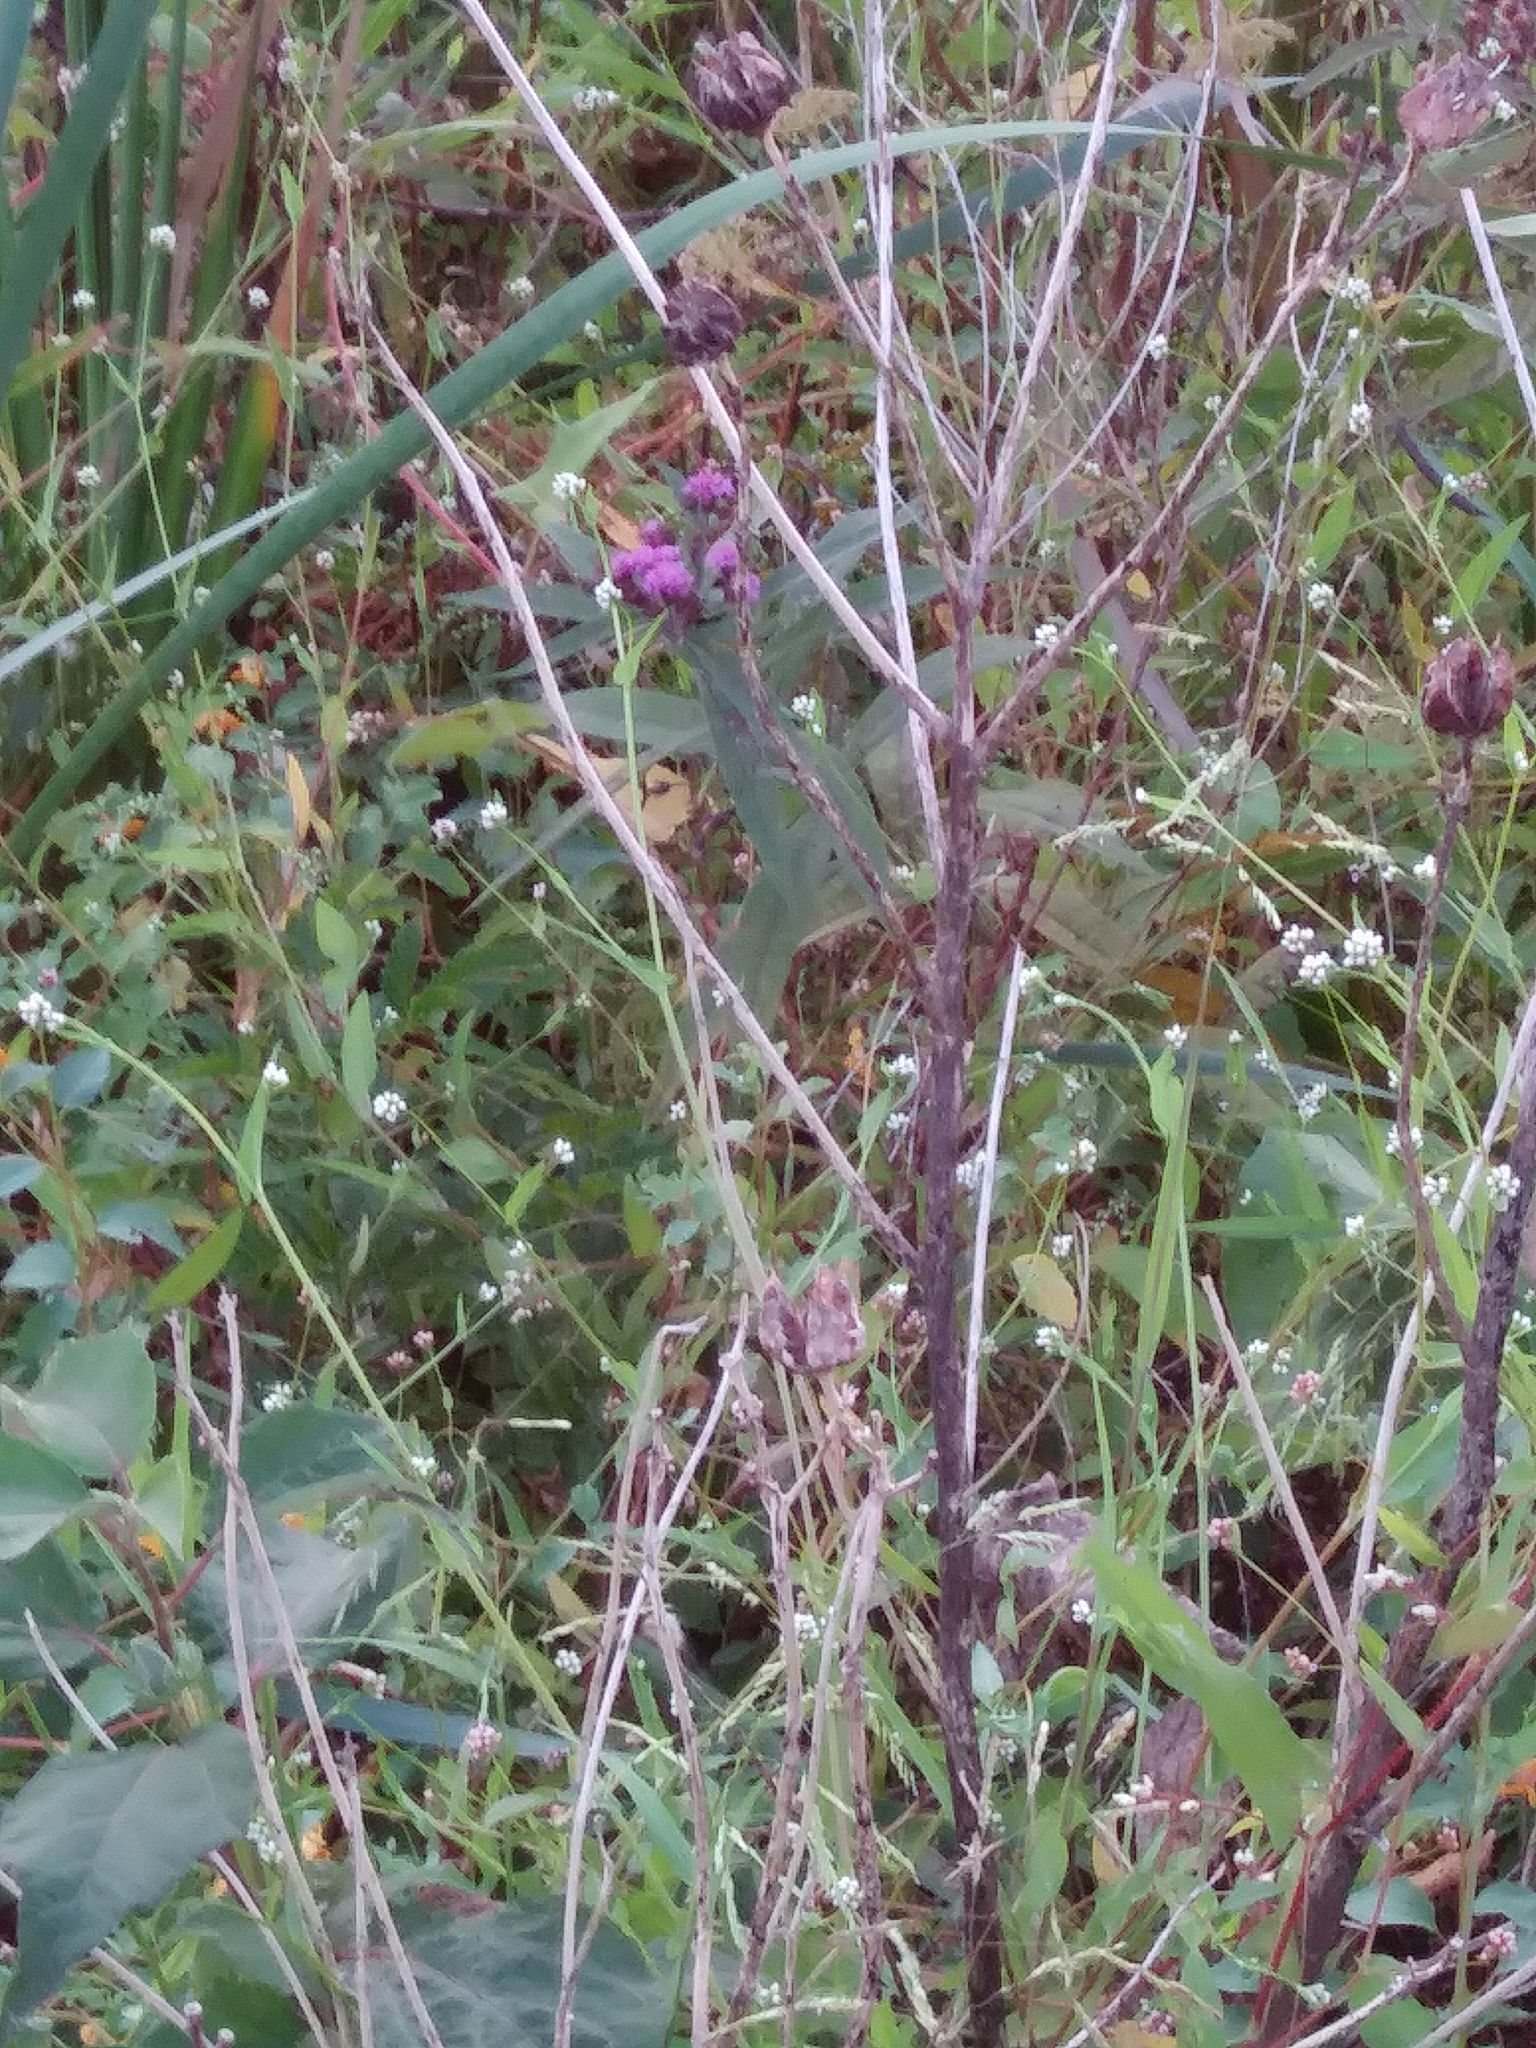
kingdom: Plantae
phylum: Tracheophyta
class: Magnoliopsida
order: Asterales
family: Asteraceae
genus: Vernonia
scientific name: Vernonia noveboracensis
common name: New york ironweed
